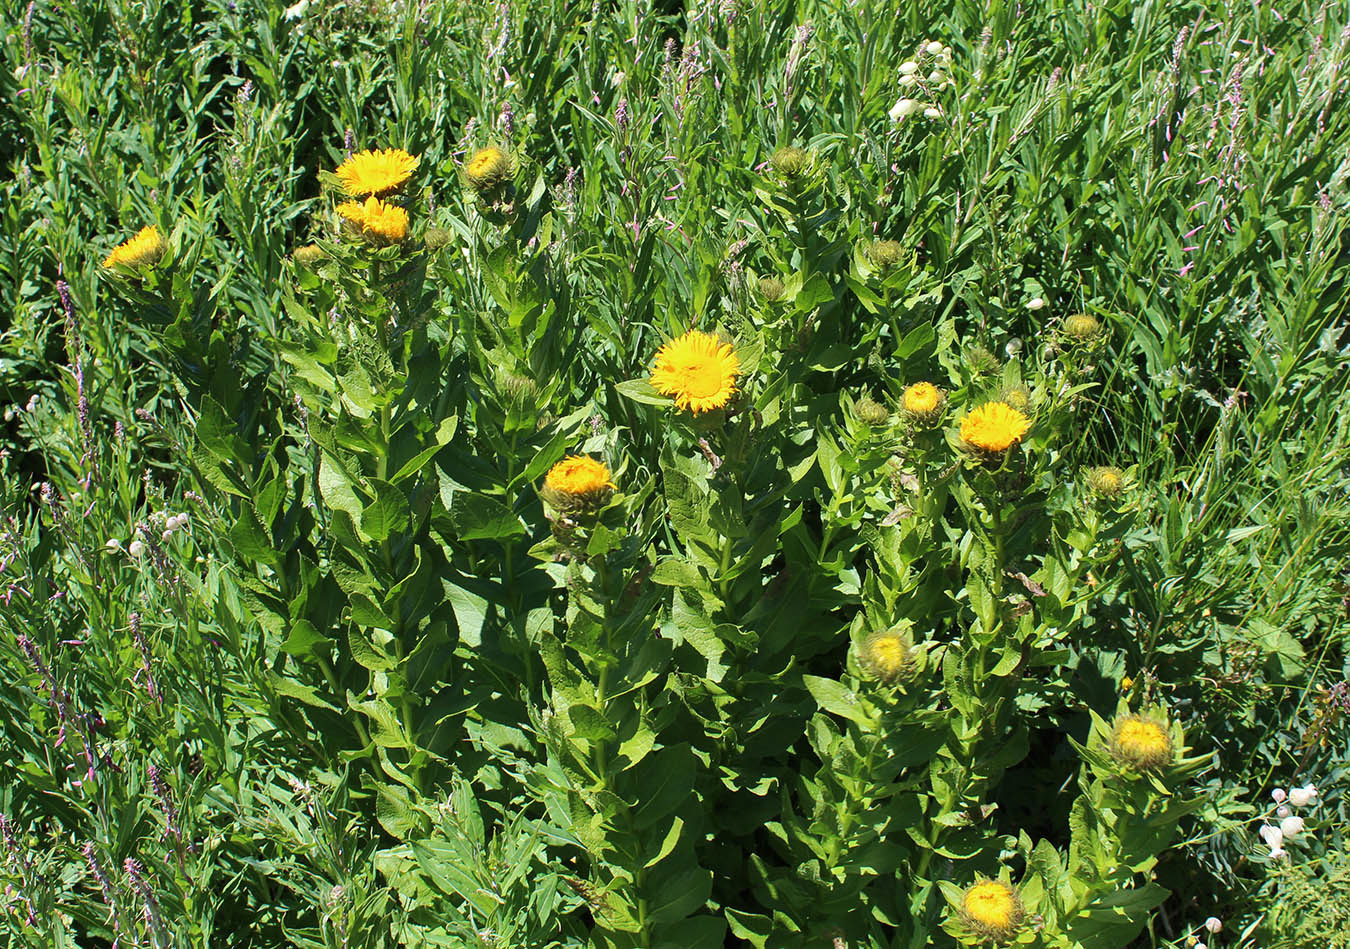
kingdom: Plantae
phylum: Tracheophyta
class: Magnoliopsida
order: Asterales
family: Asteraceae
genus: Pentanema
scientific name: Pentanema orientale
